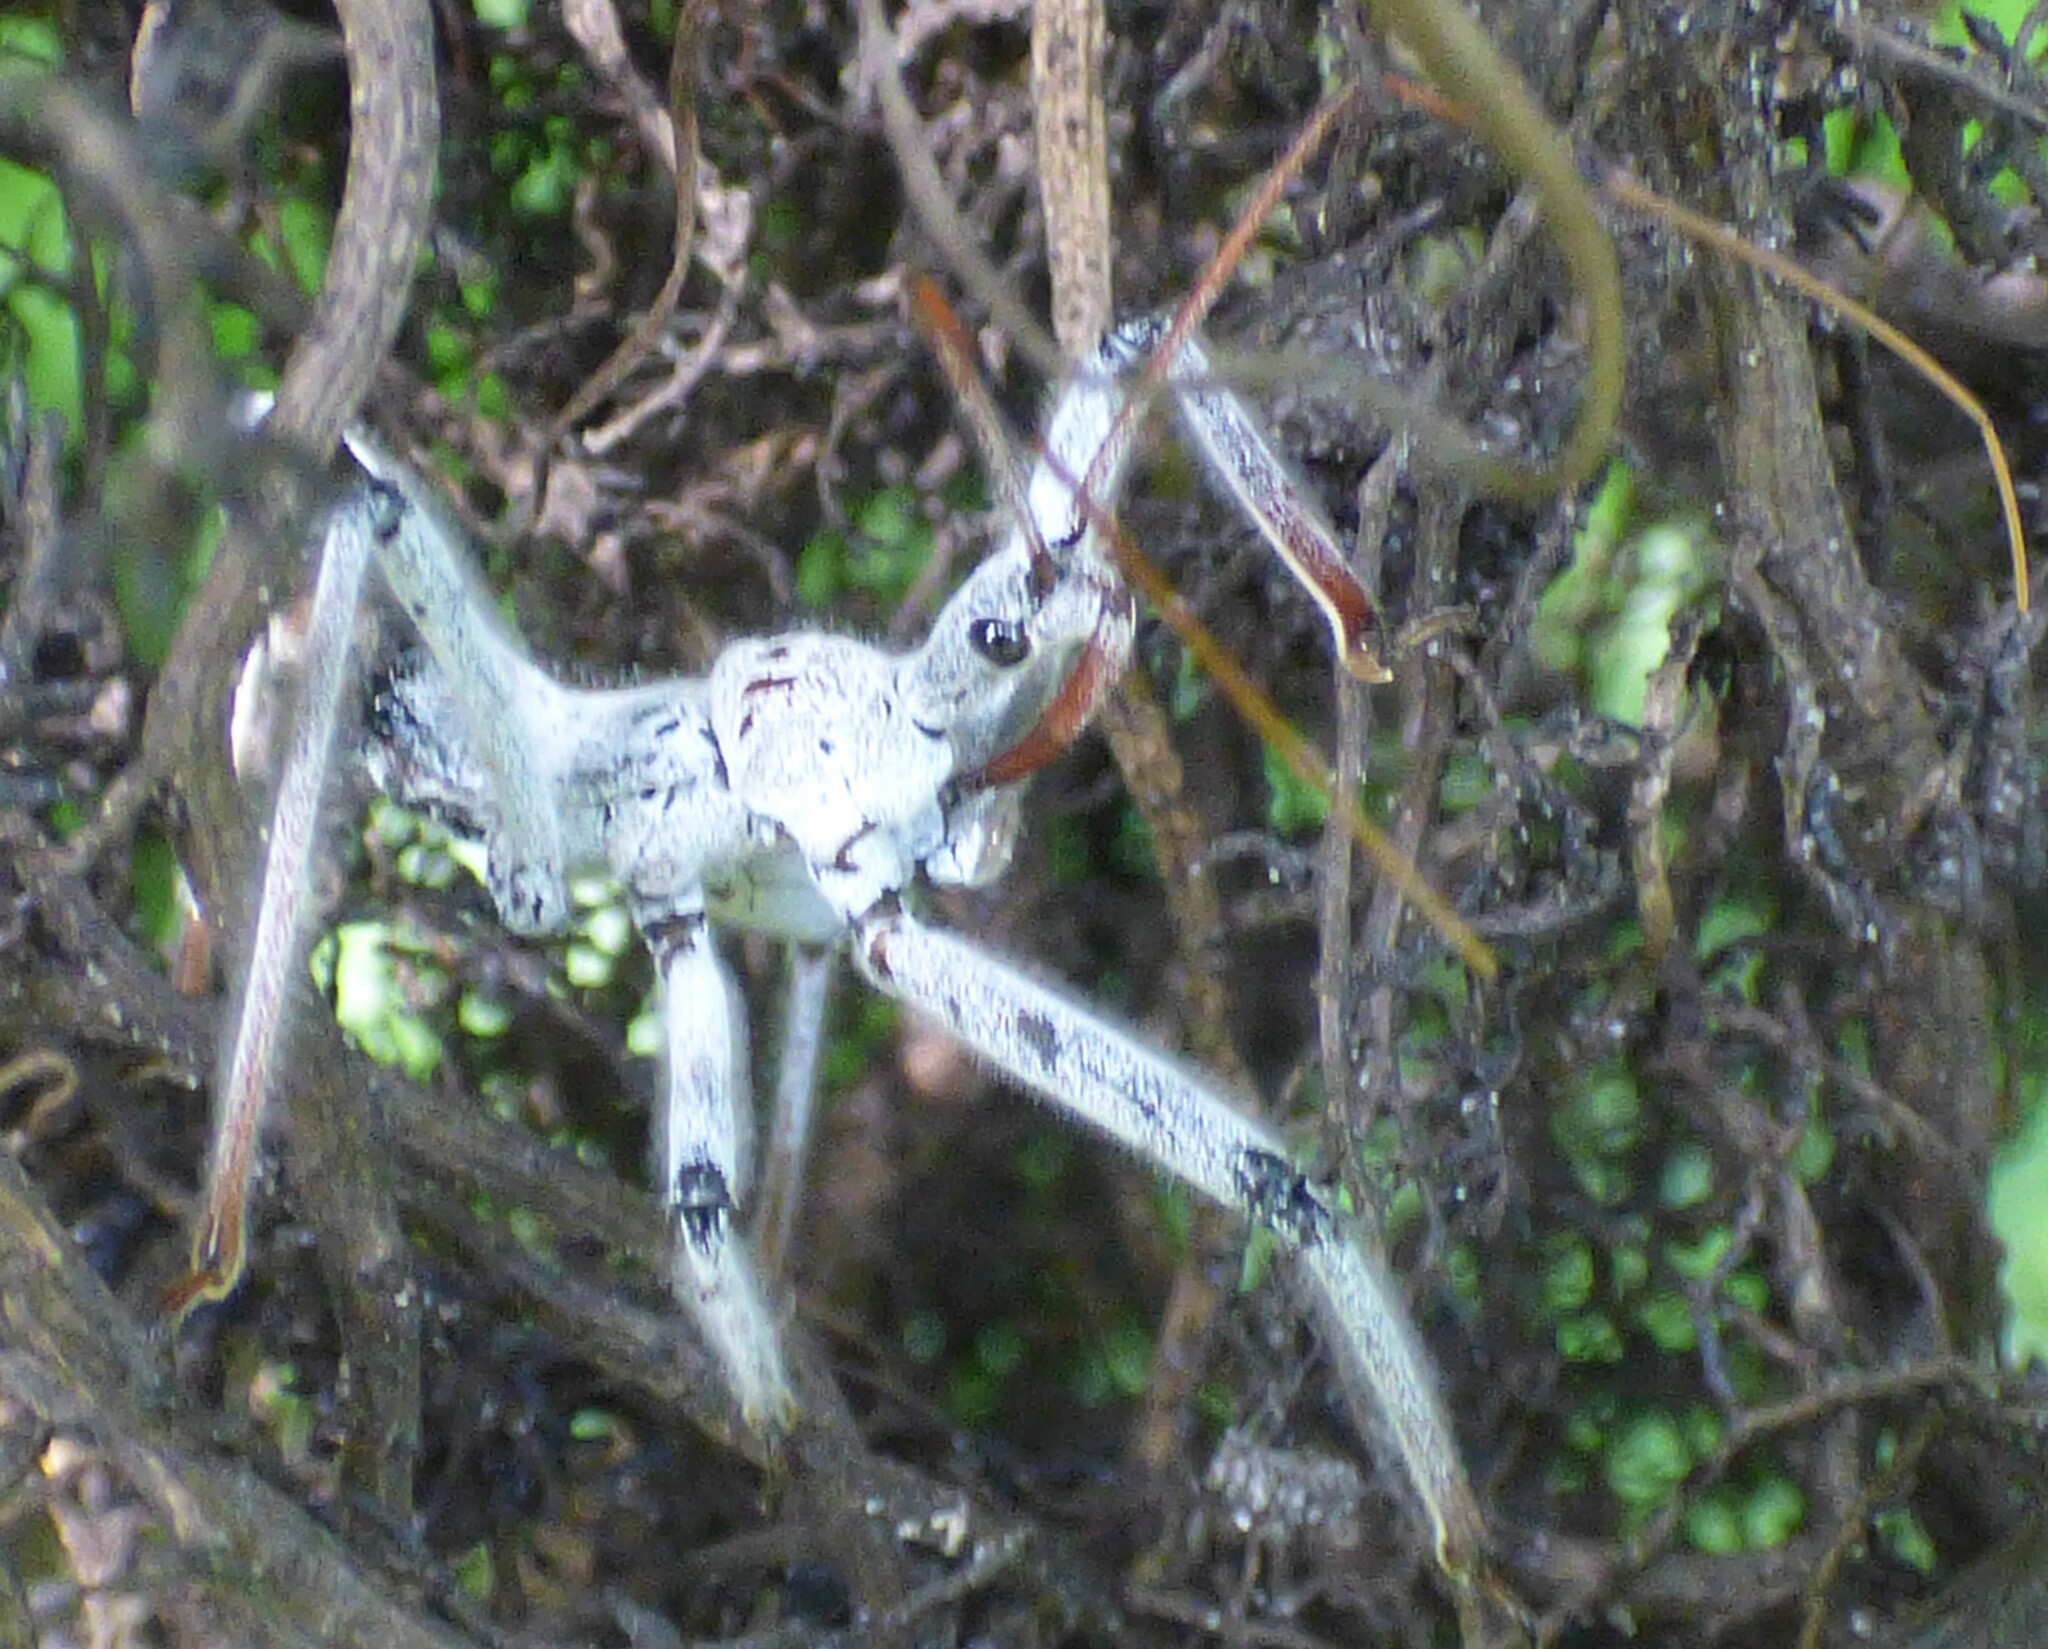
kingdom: Animalia
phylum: Arthropoda
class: Insecta
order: Hemiptera
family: Reduviidae
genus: Arilus
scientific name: Arilus cristatus
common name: North american wheel bug
